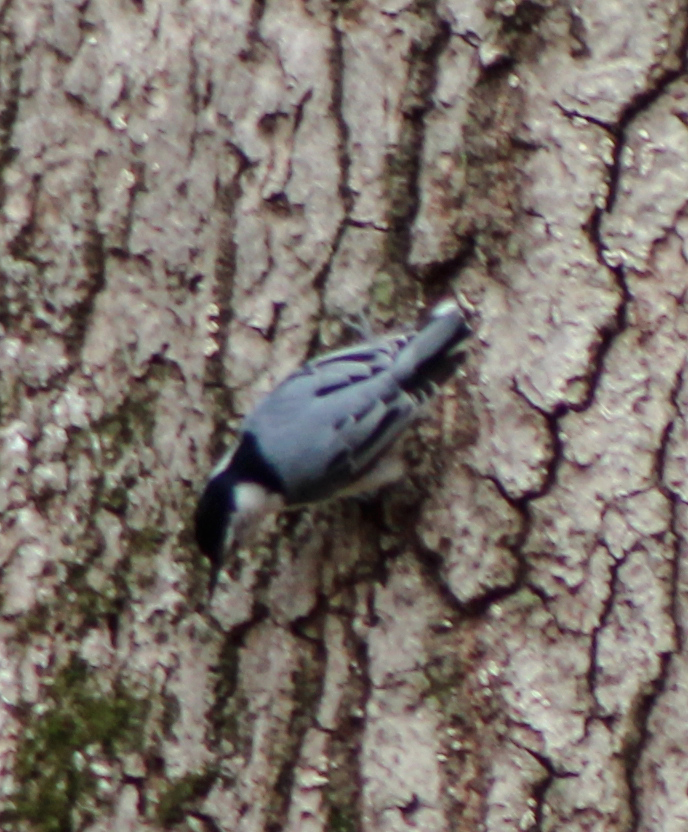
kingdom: Animalia
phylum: Chordata
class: Aves
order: Passeriformes
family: Sittidae
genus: Sitta
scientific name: Sitta carolinensis
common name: White-breasted nuthatch
